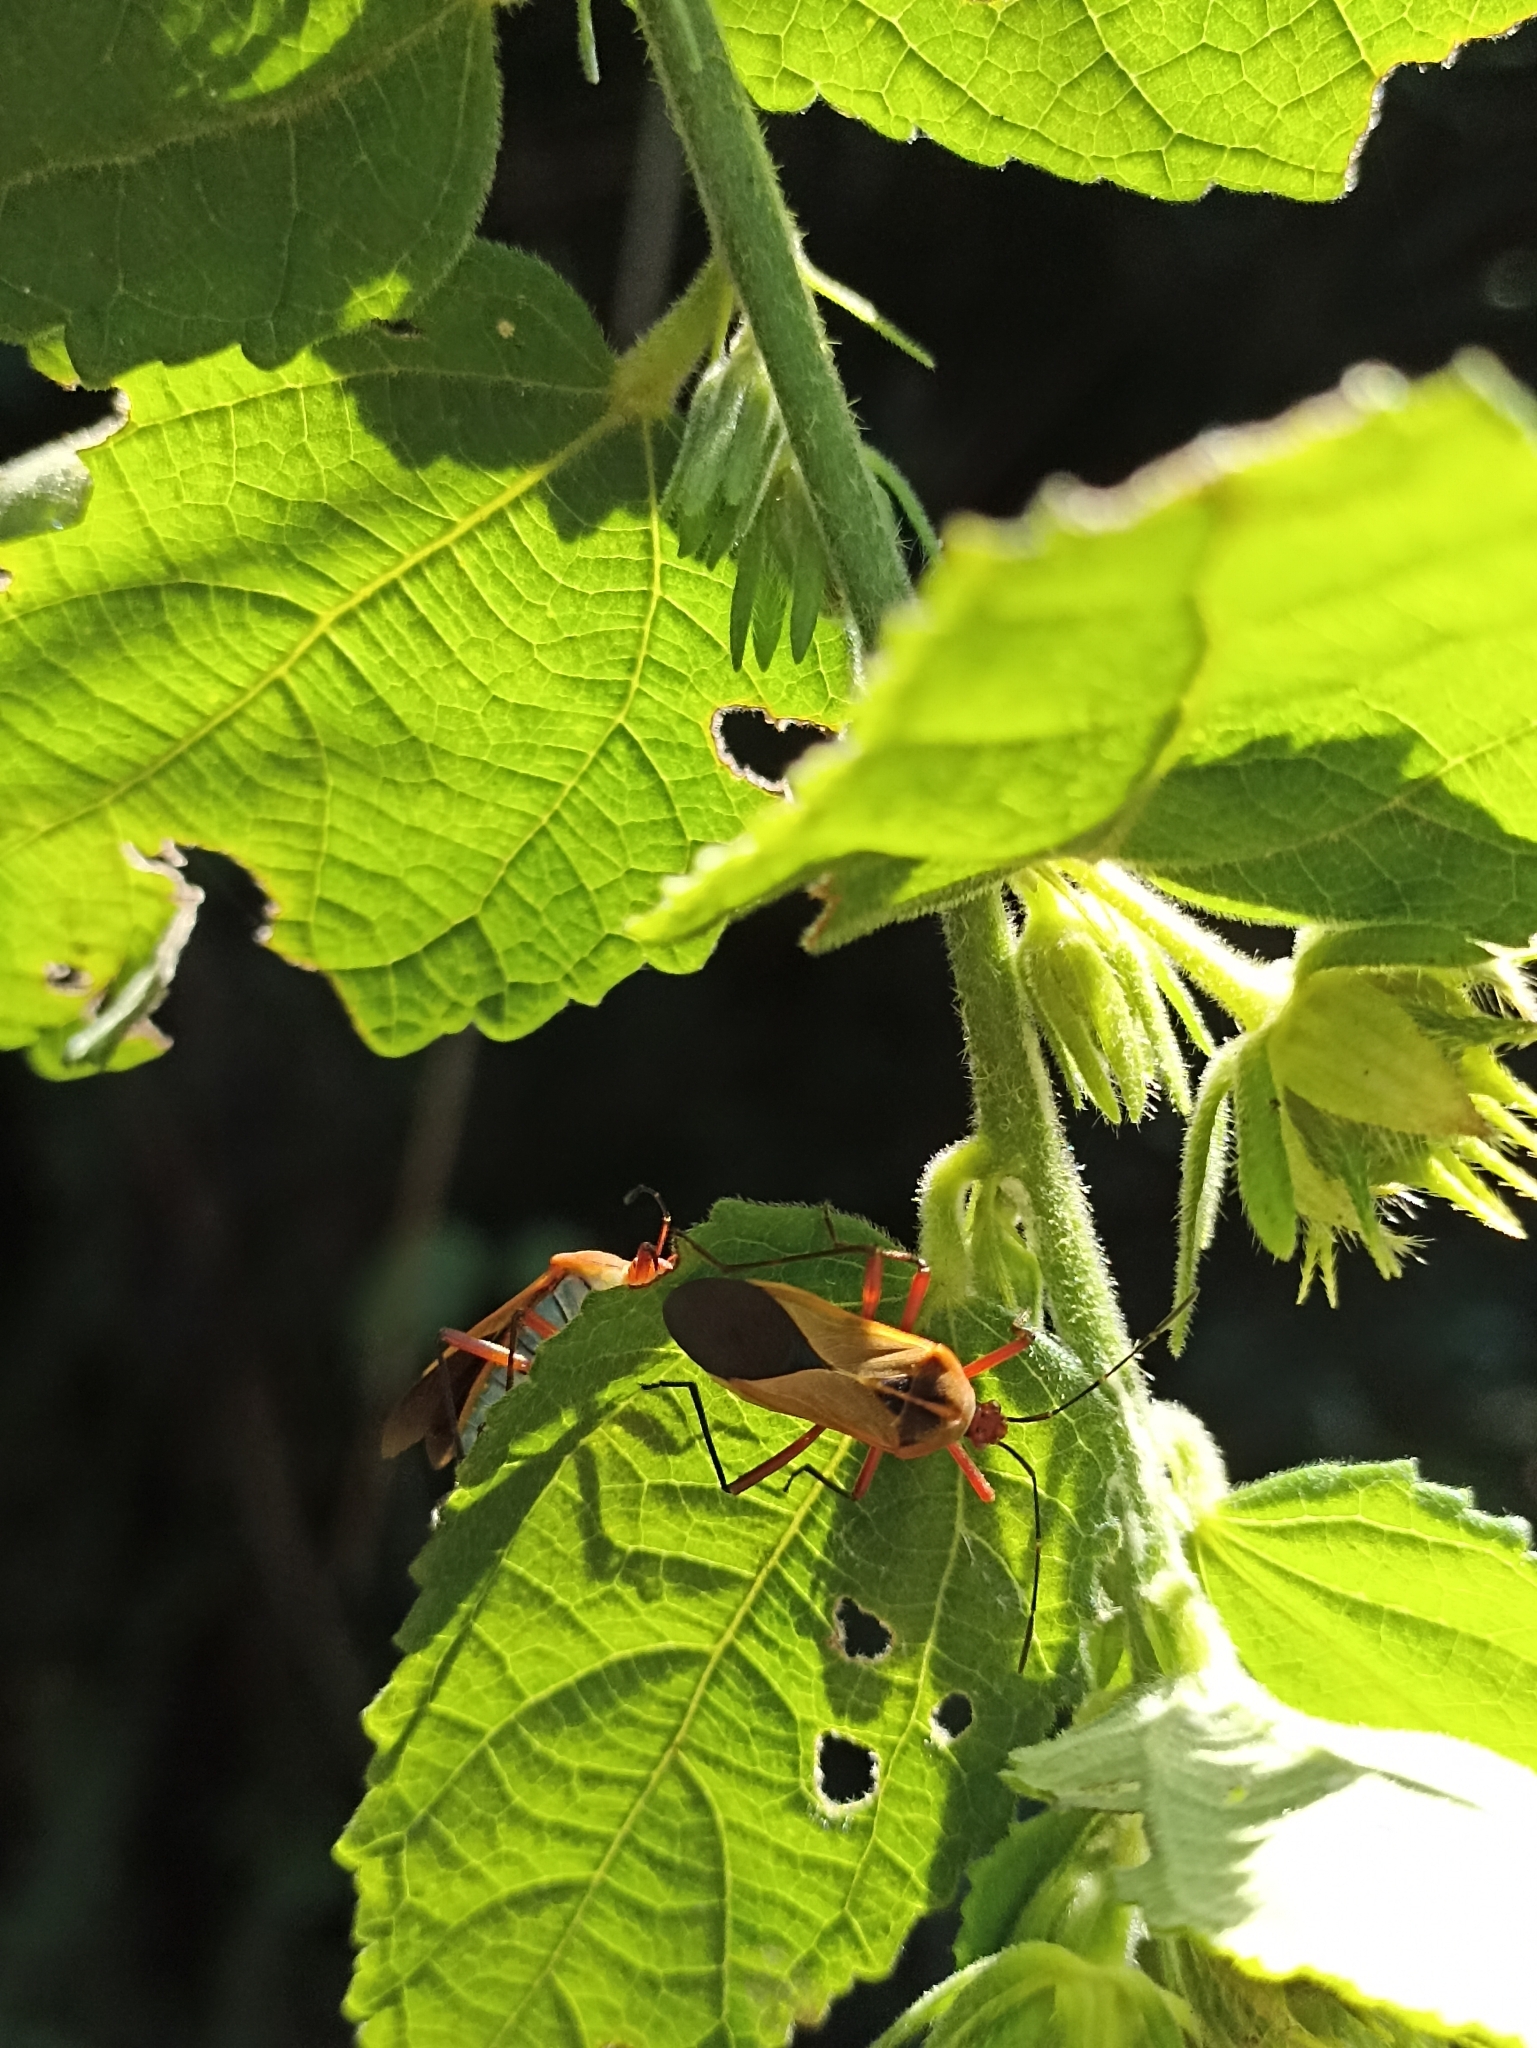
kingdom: Animalia
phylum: Arthropoda
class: Insecta
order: Hemiptera
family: Coreidae
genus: Hypselonotus
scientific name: Hypselonotus bitrianguliger
